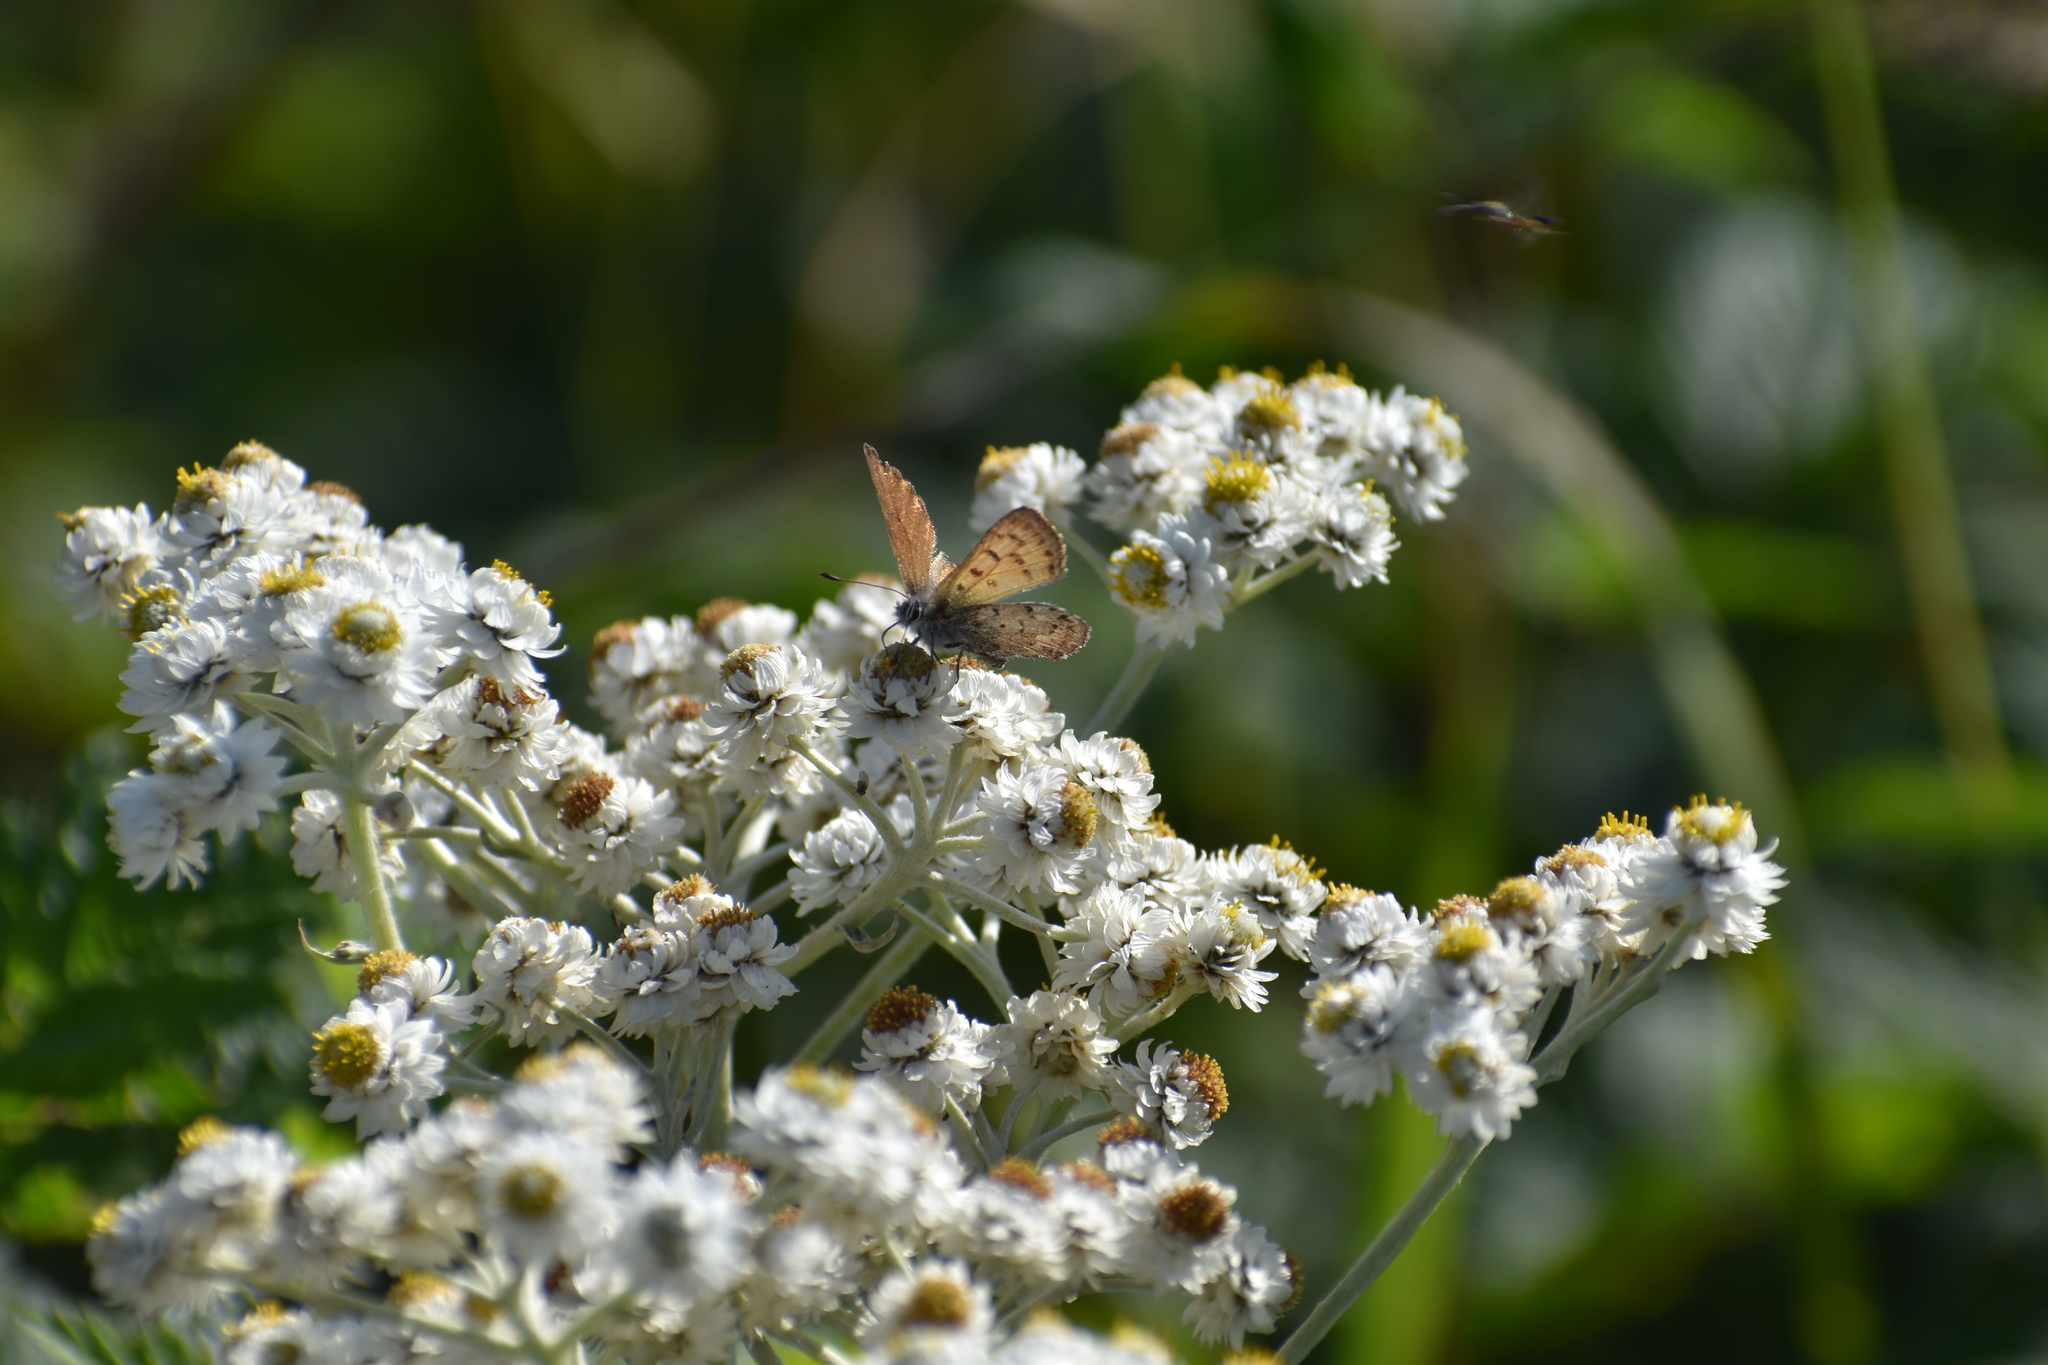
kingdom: Animalia
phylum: Arthropoda
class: Insecta
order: Lepidoptera
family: Lycaenidae
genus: Tharsalea
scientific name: Tharsalea mariposa
